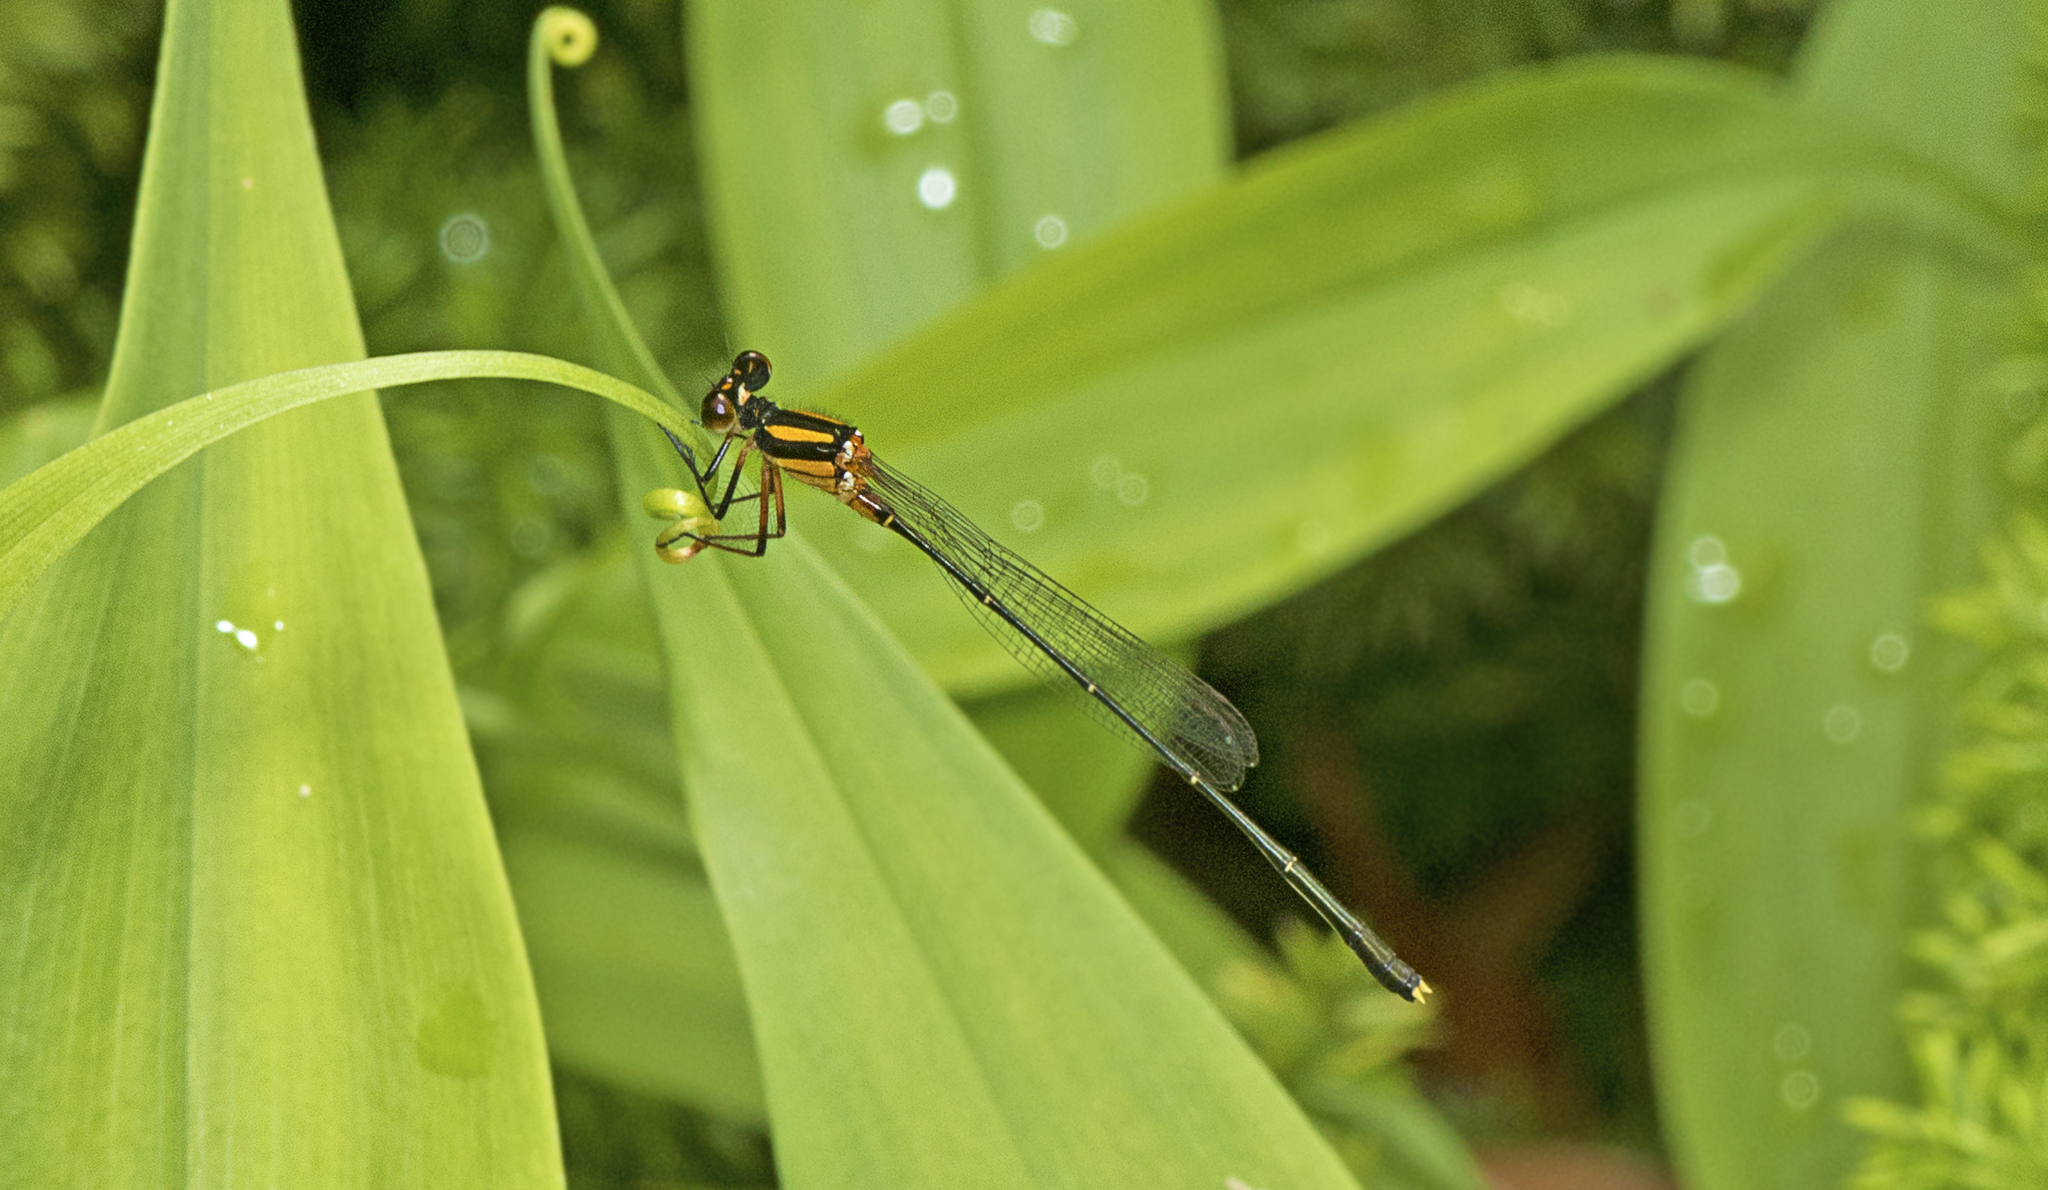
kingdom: Animalia
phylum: Arthropoda
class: Insecta
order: Odonata
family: Platycnemididae
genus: Nososticta
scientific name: Nososticta solida
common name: Orange threadtail
